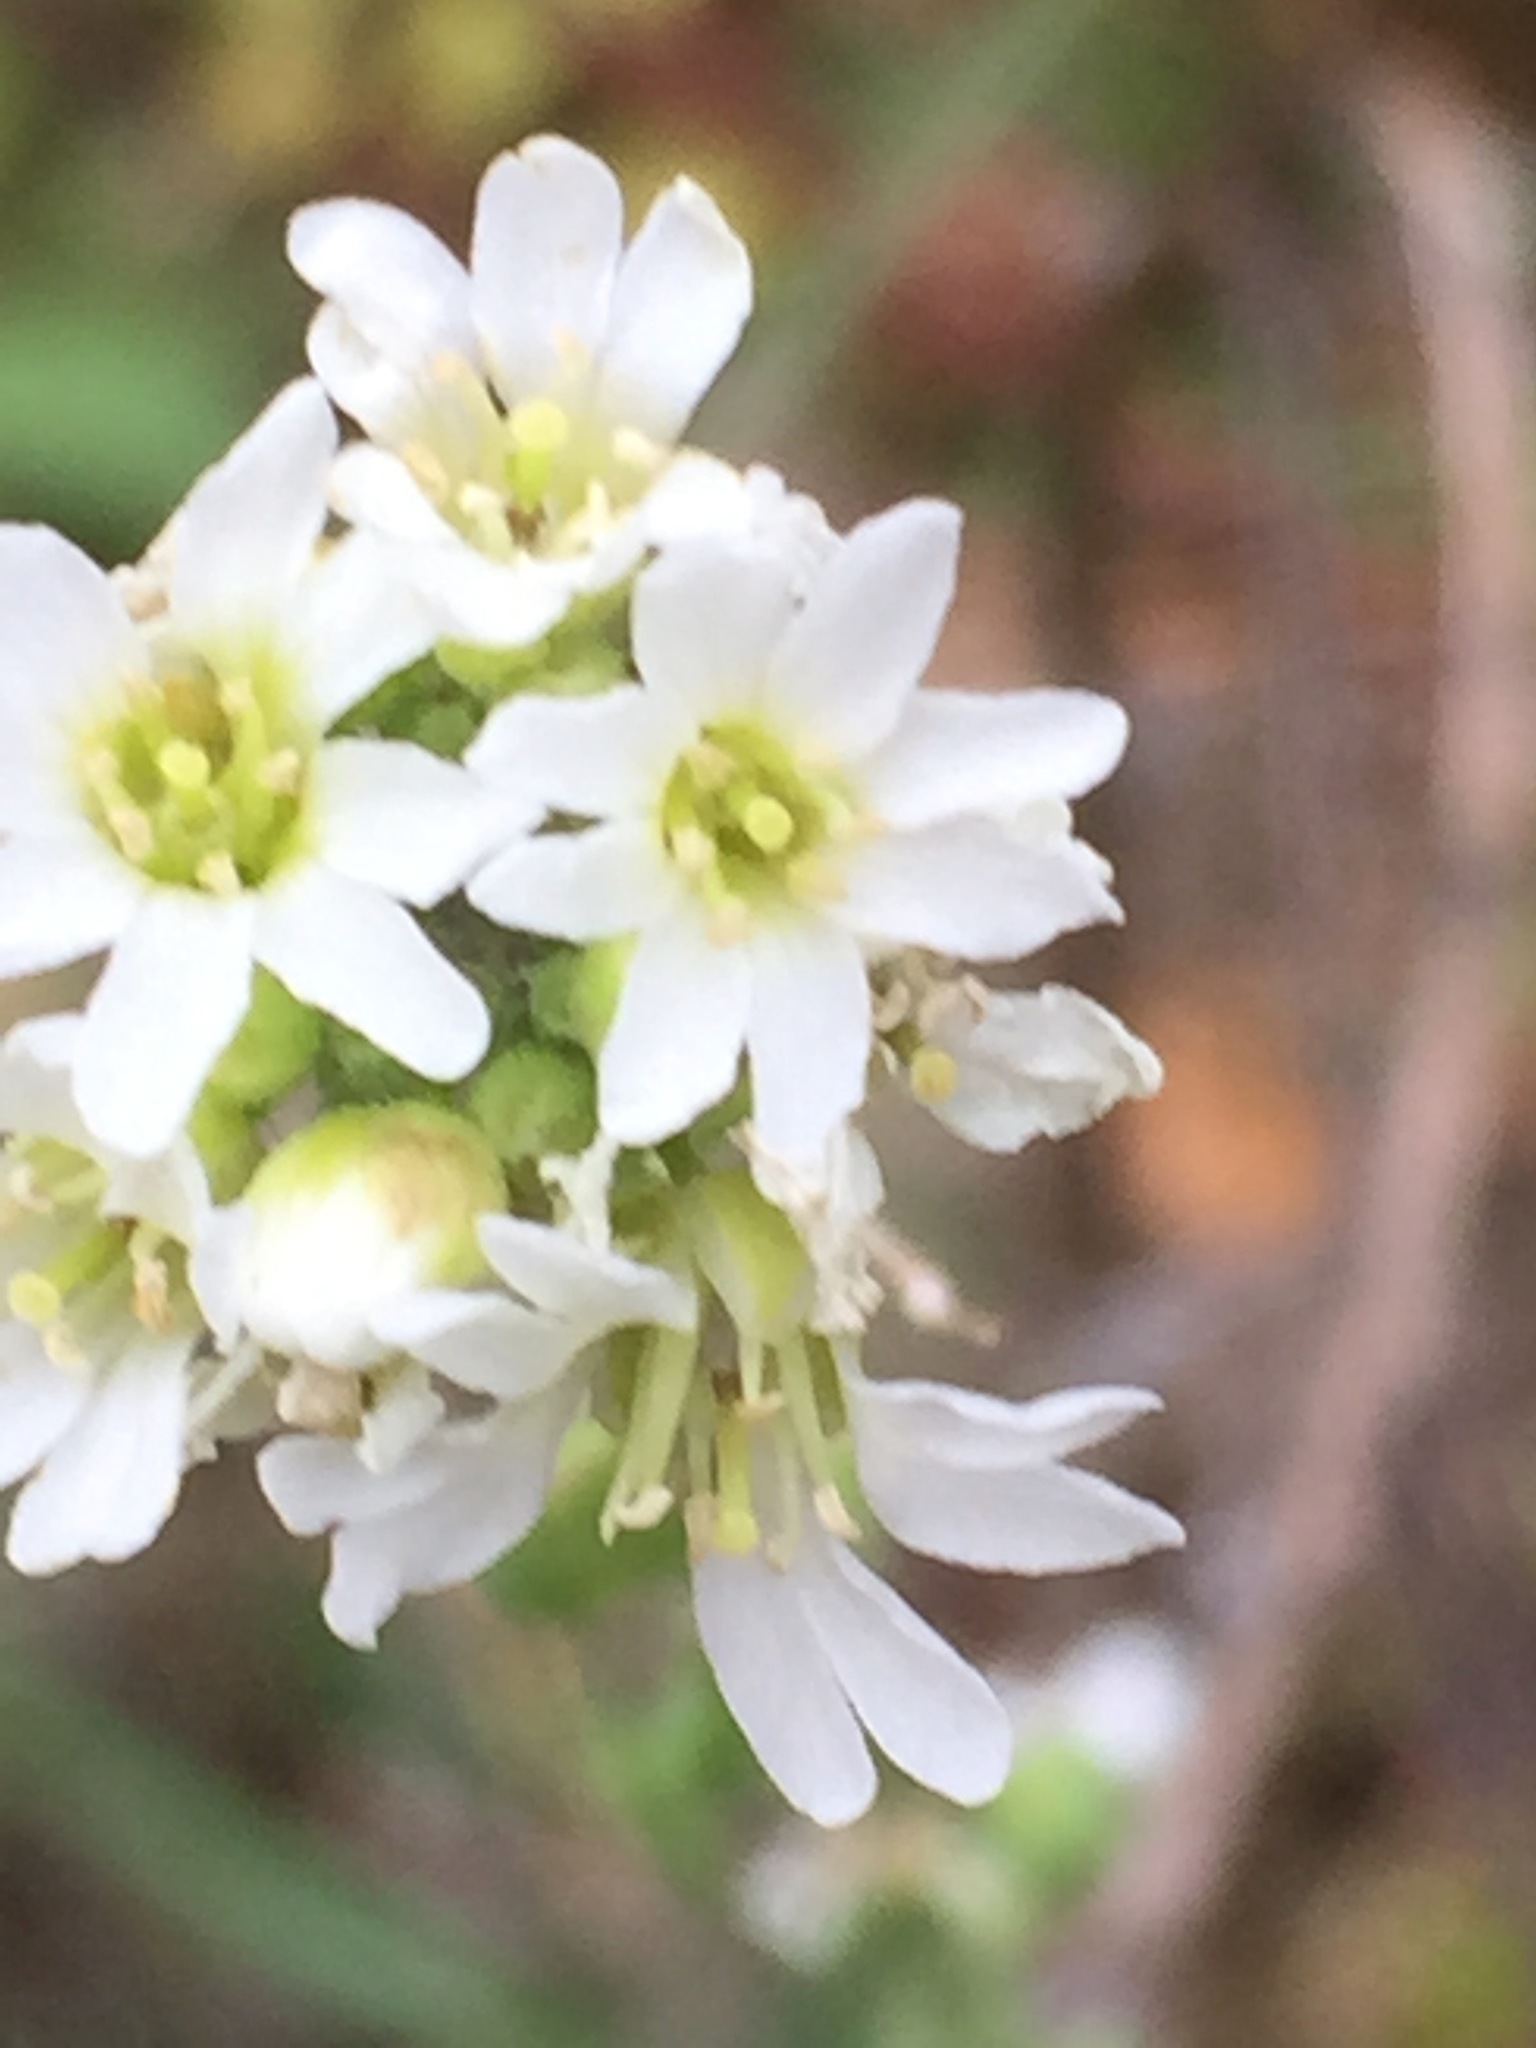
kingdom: Plantae
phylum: Tracheophyta
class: Magnoliopsida
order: Brassicales
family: Brassicaceae
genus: Berteroa
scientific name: Berteroa incana
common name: Hoary alison
